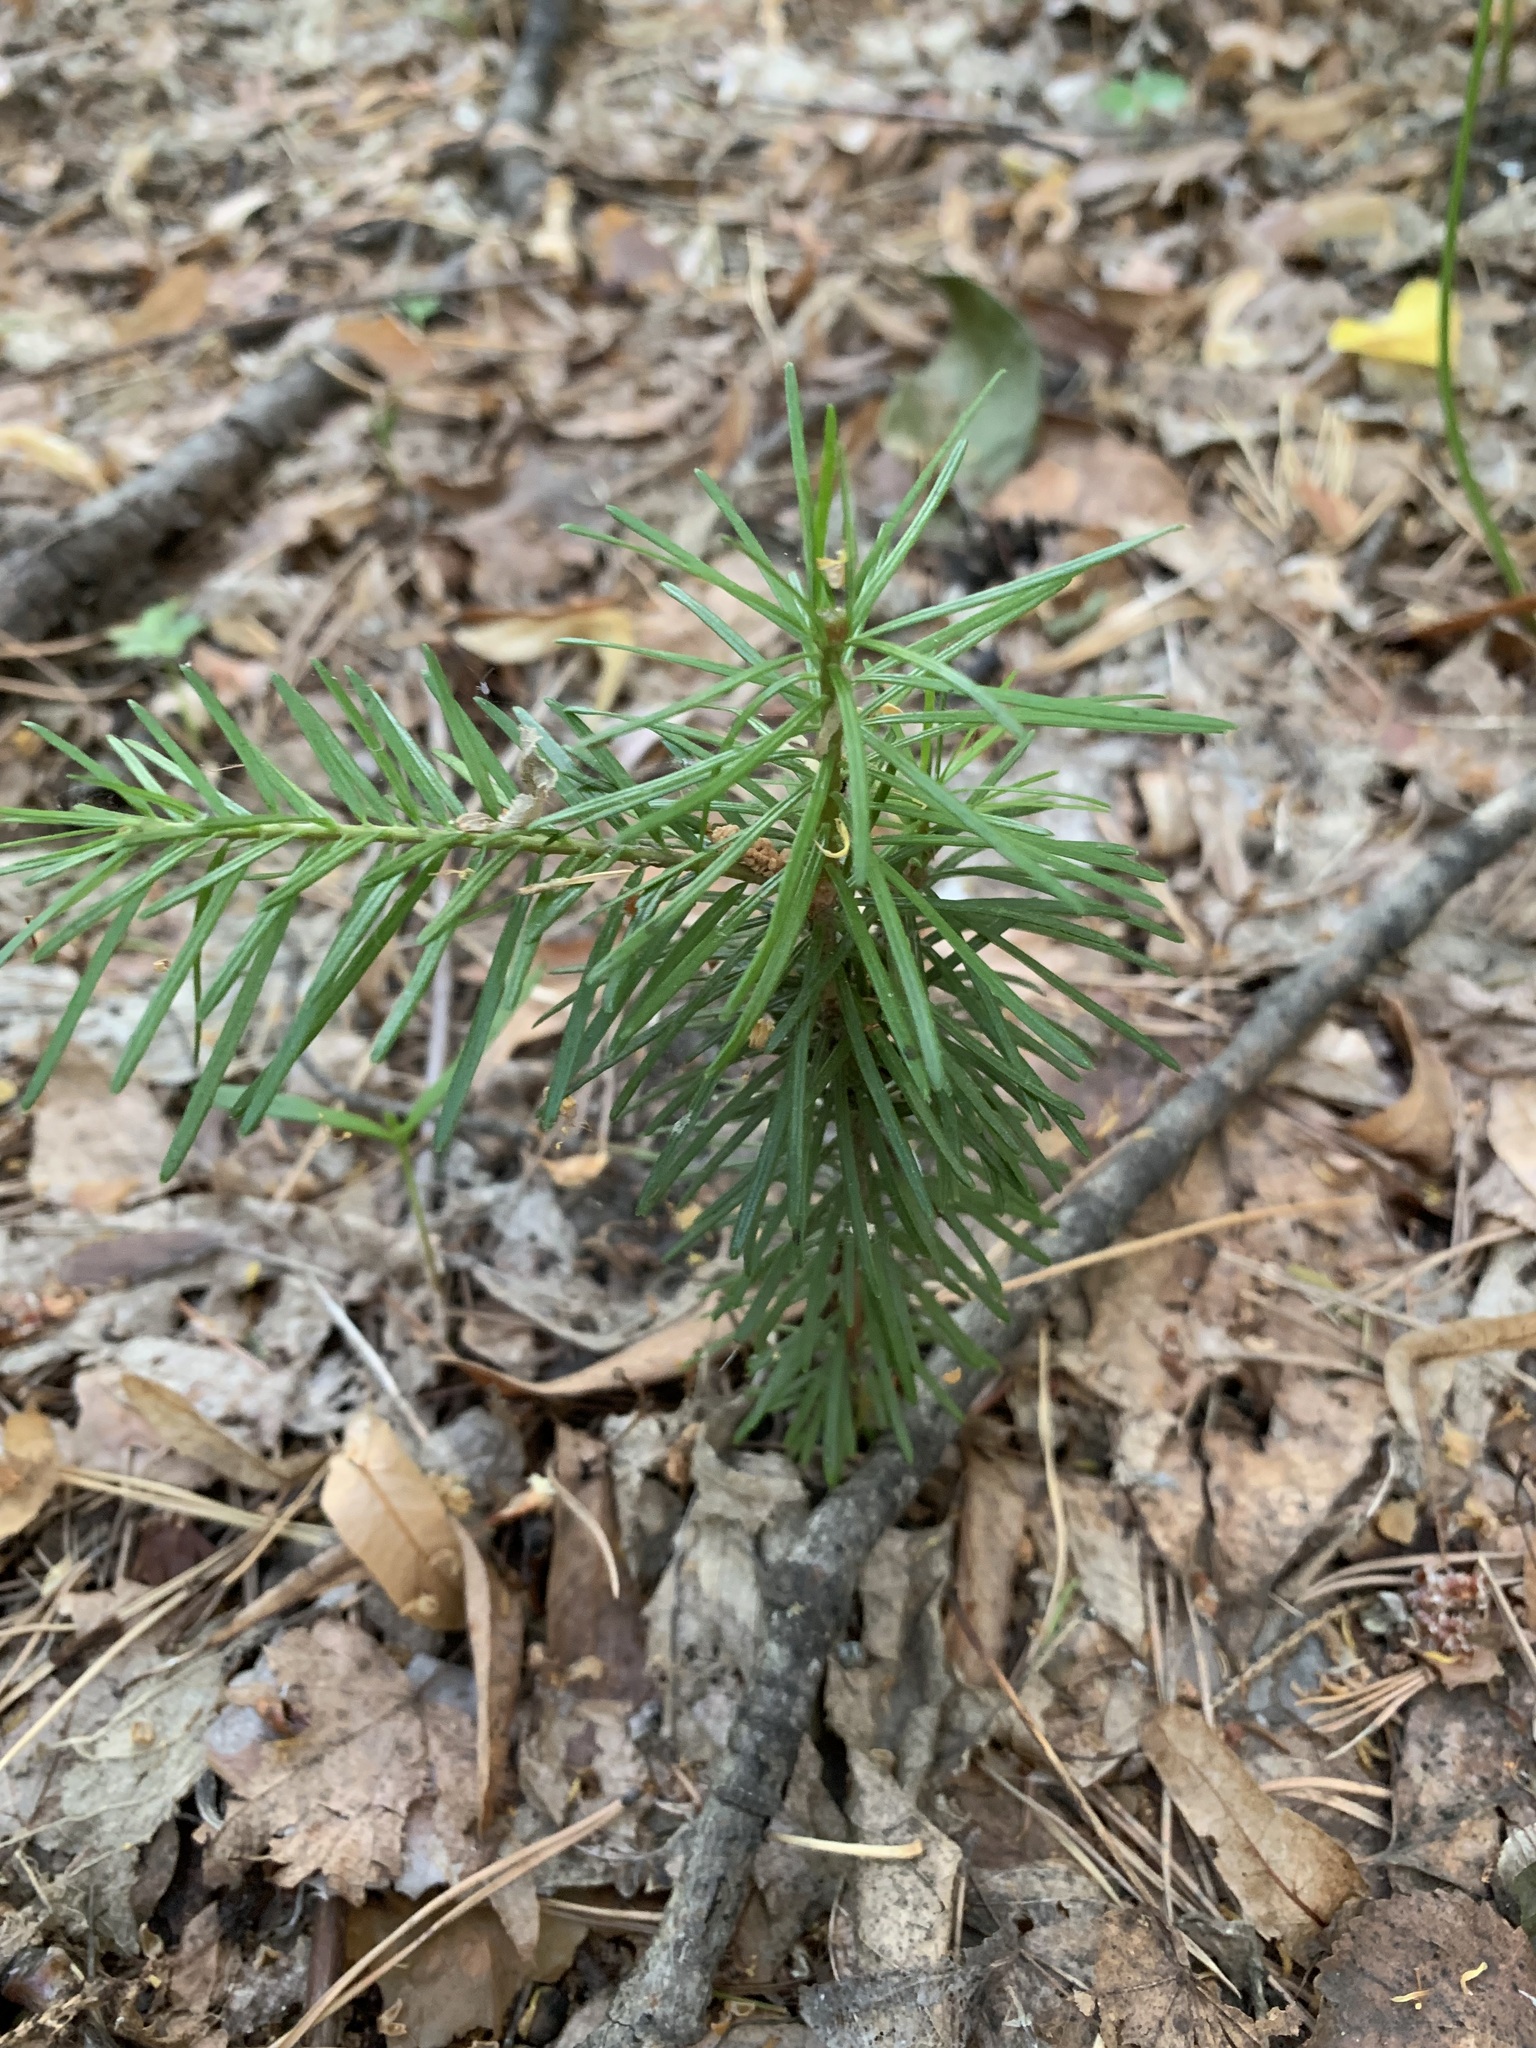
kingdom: Plantae
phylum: Tracheophyta
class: Pinopsida
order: Pinales
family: Pinaceae
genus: Abies
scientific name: Abies sibirica
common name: Siberian fir
